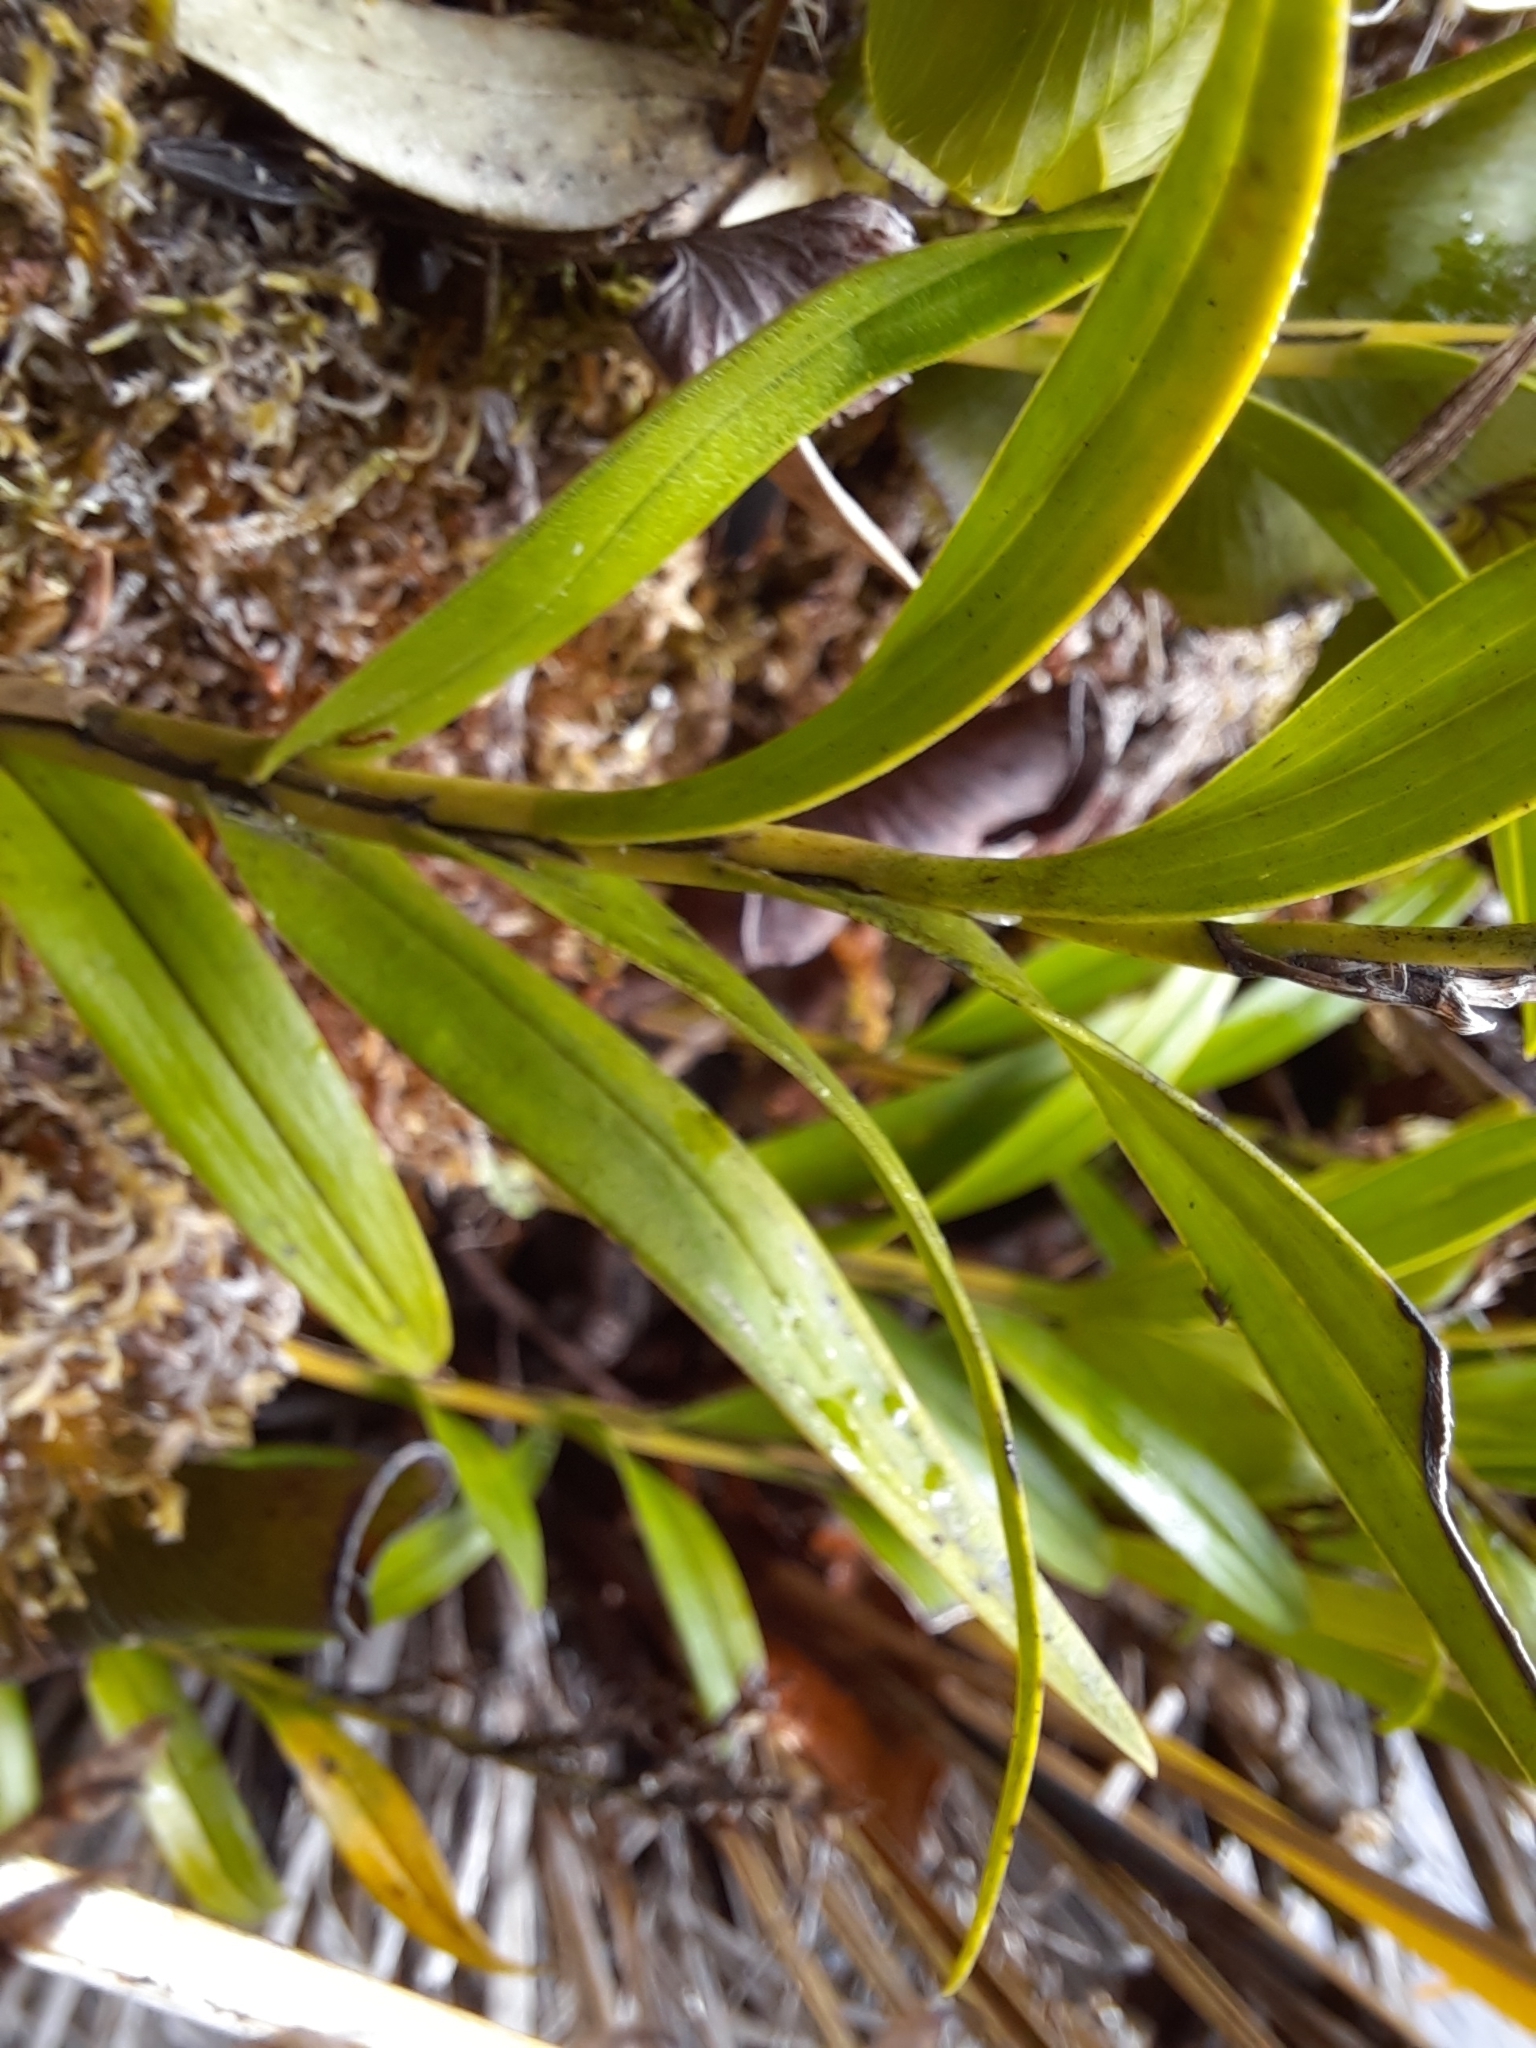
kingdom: Plantae
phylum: Tracheophyta
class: Liliopsida
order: Asparagales
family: Orchidaceae
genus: Earina
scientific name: Earina autumnalis
